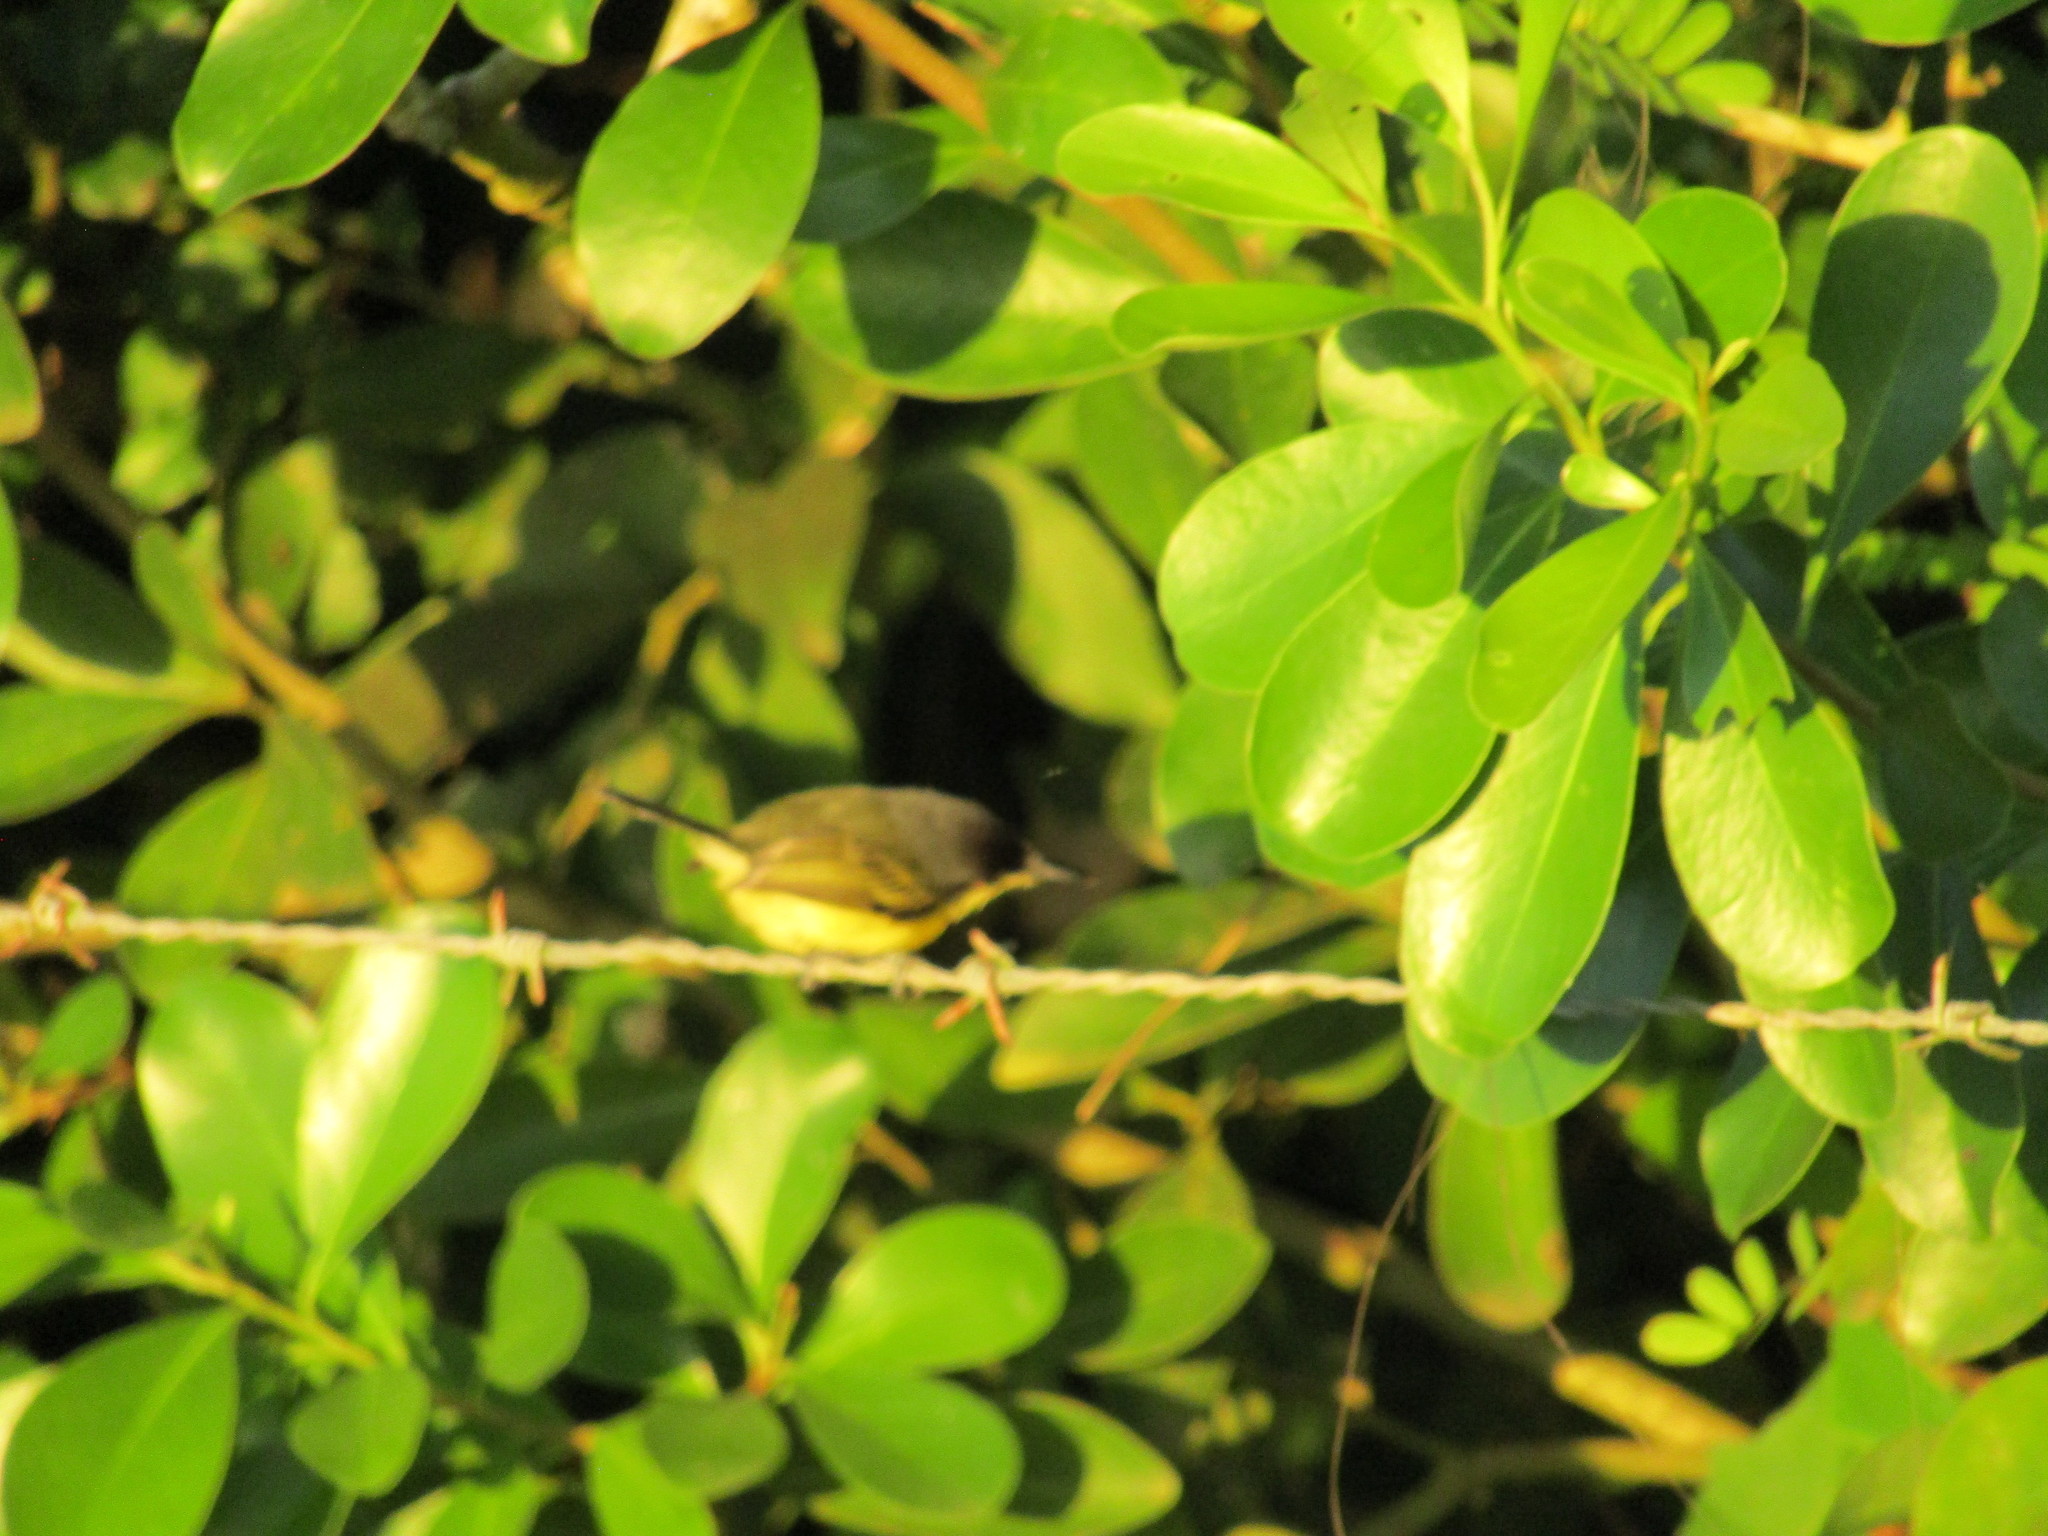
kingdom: Animalia
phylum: Chordata
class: Aves
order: Passeriformes
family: Tyrannidae
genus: Todirostrum
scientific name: Todirostrum cinereum
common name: Common tody-flycatcher
